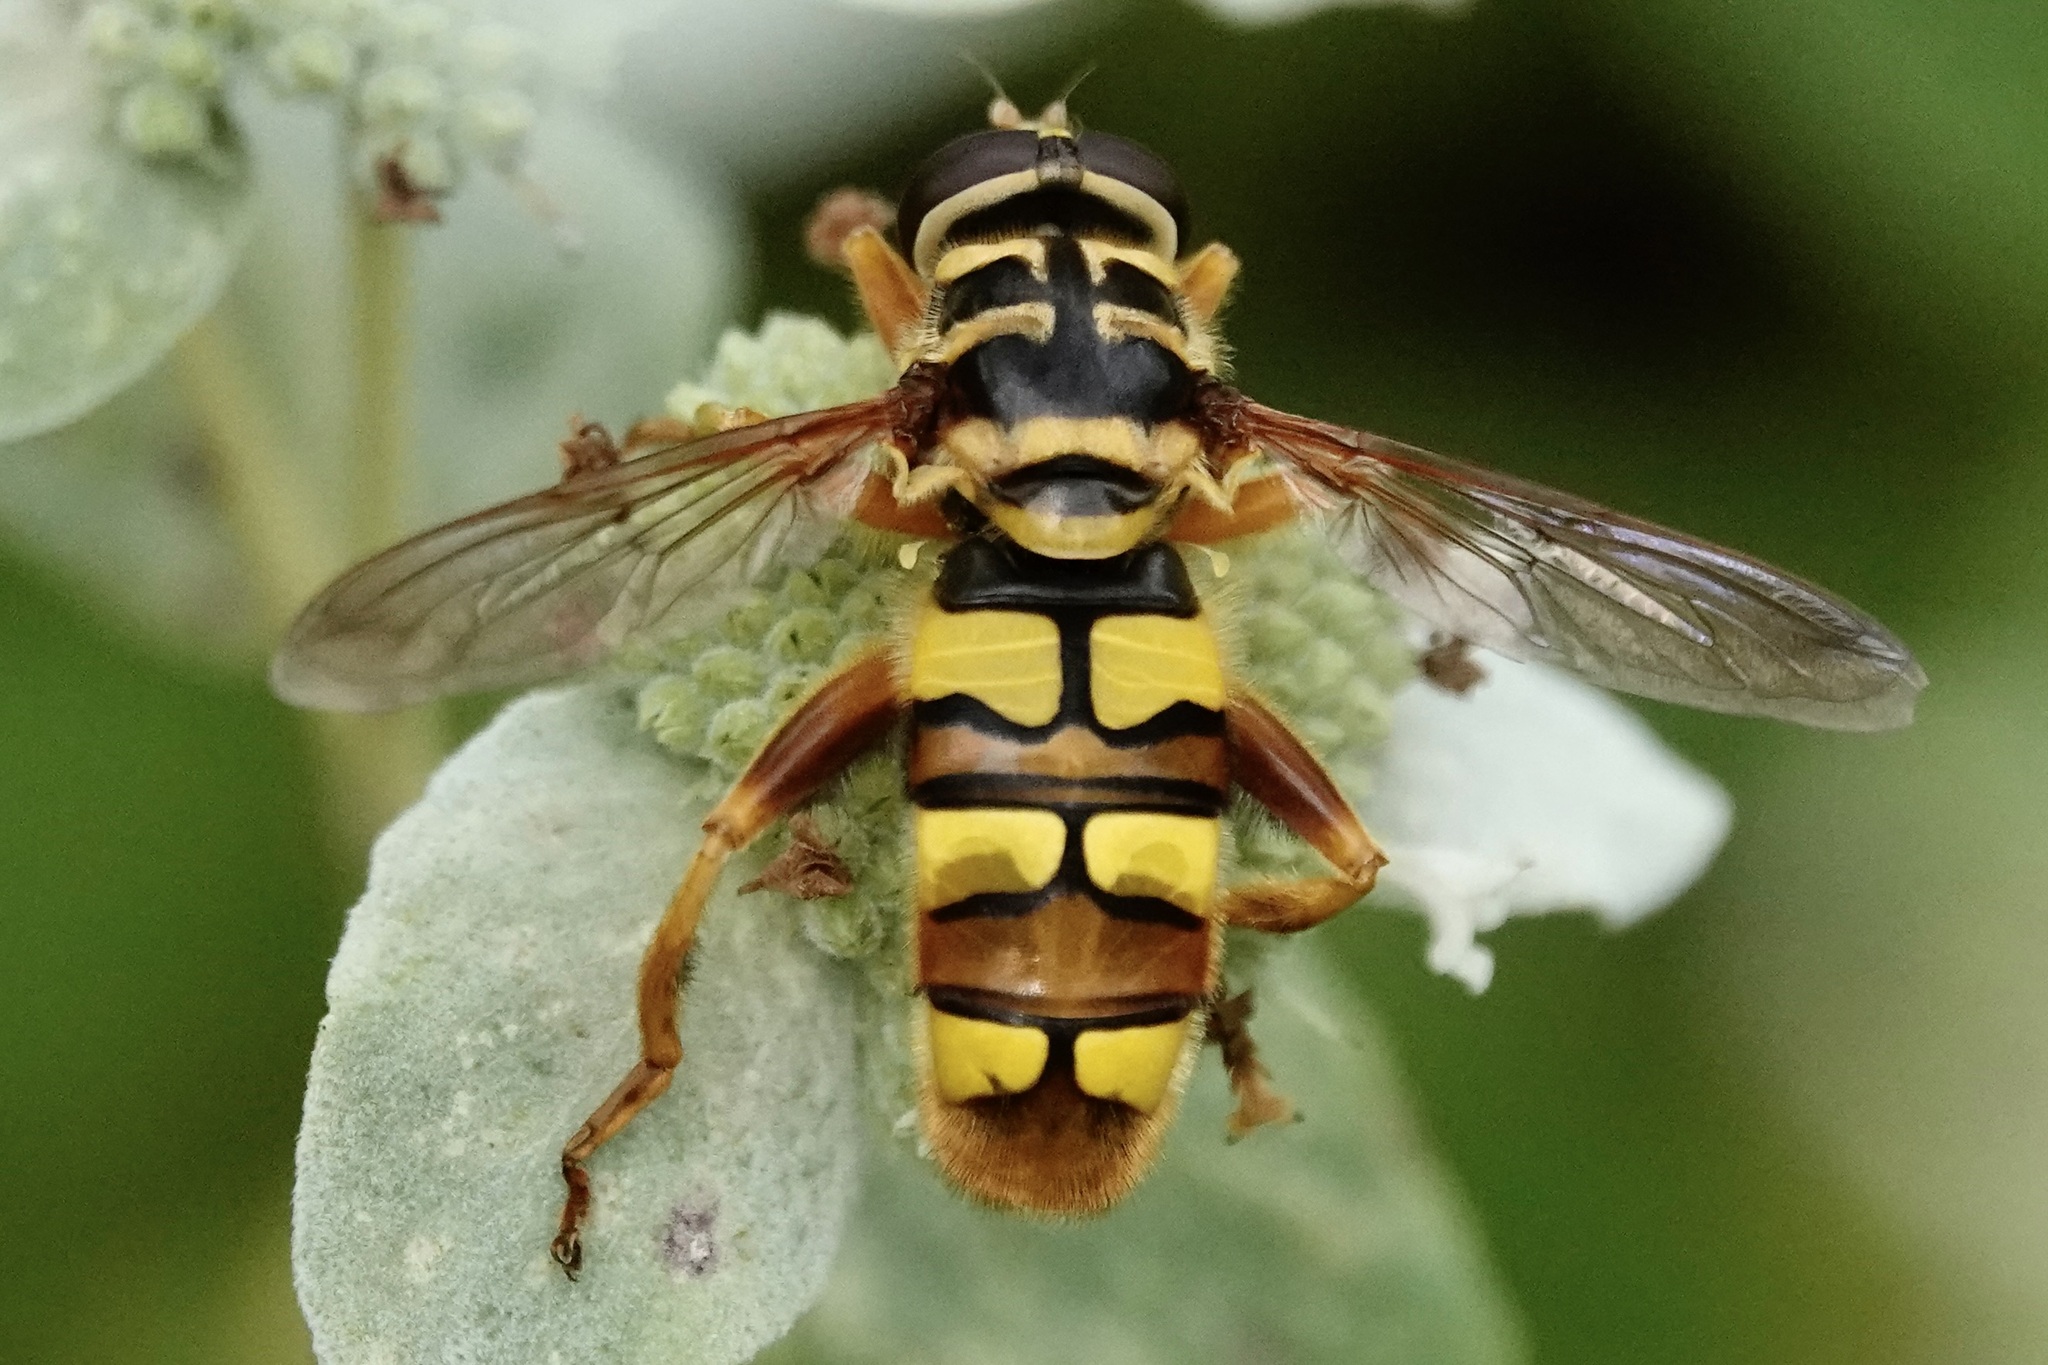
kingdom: Animalia
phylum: Arthropoda
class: Insecta
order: Diptera
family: Syrphidae
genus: Milesia
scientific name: Milesia virginiensis
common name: Virginia giant
